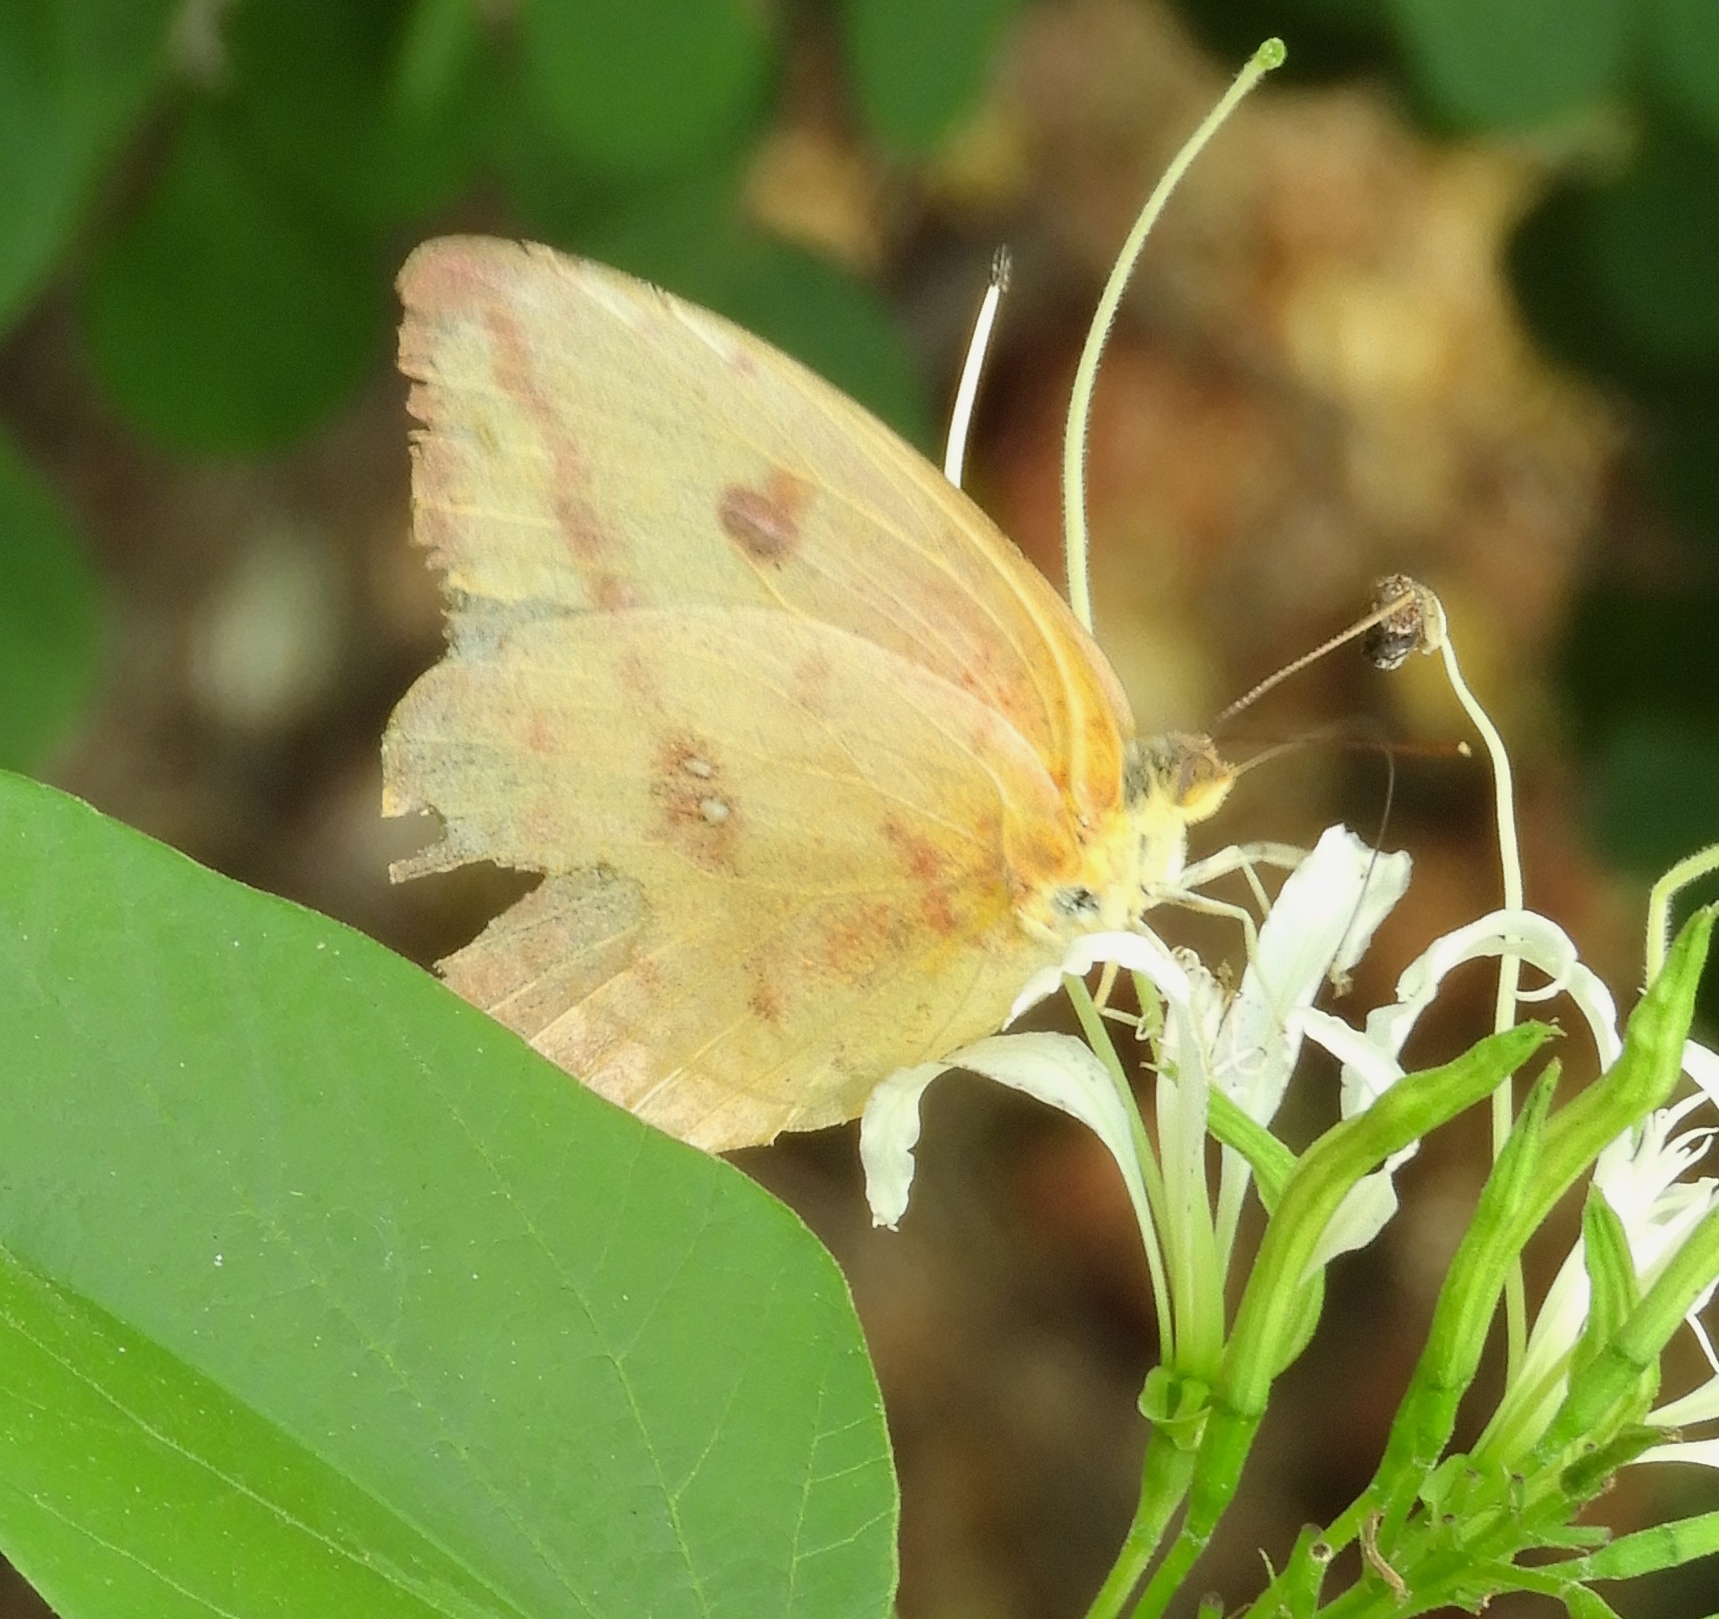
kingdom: Animalia
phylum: Arthropoda
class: Insecta
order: Lepidoptera
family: Pieridae
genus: Phoebis
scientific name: Phoebis agarithe
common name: Large orange sulphur
